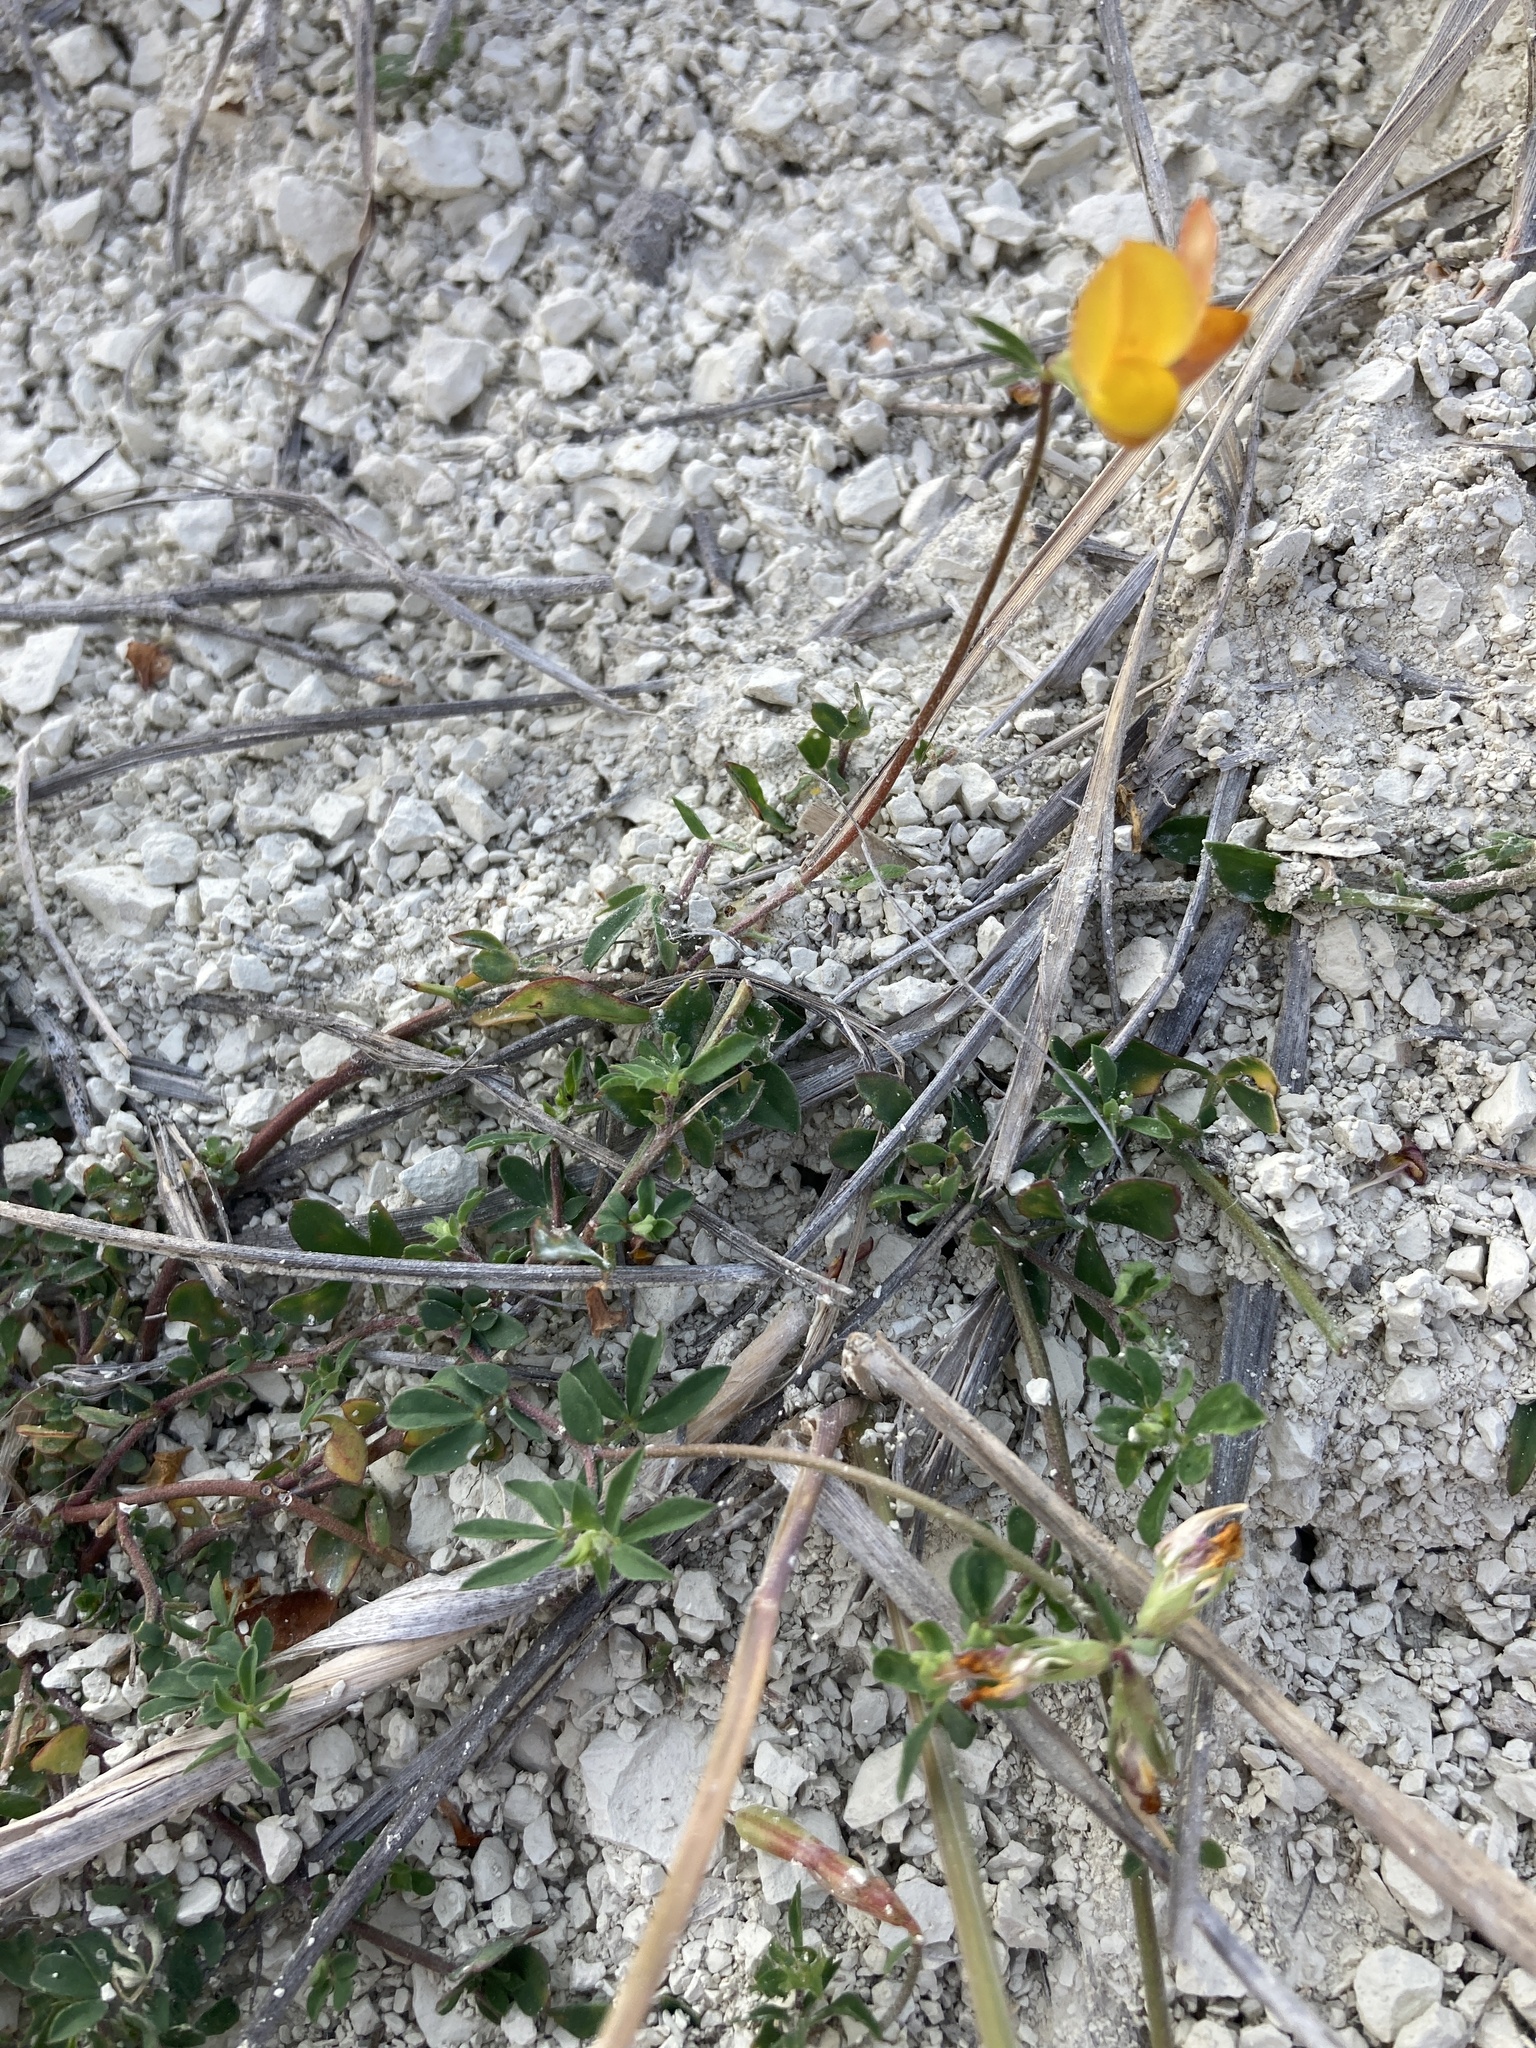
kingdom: Plantae
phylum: Tracheophyta
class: Magnoliopsida
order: Fabales
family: Fabaceae
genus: Lotus
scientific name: Lotus corniculatus
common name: Common bird's-foot-trefoil
